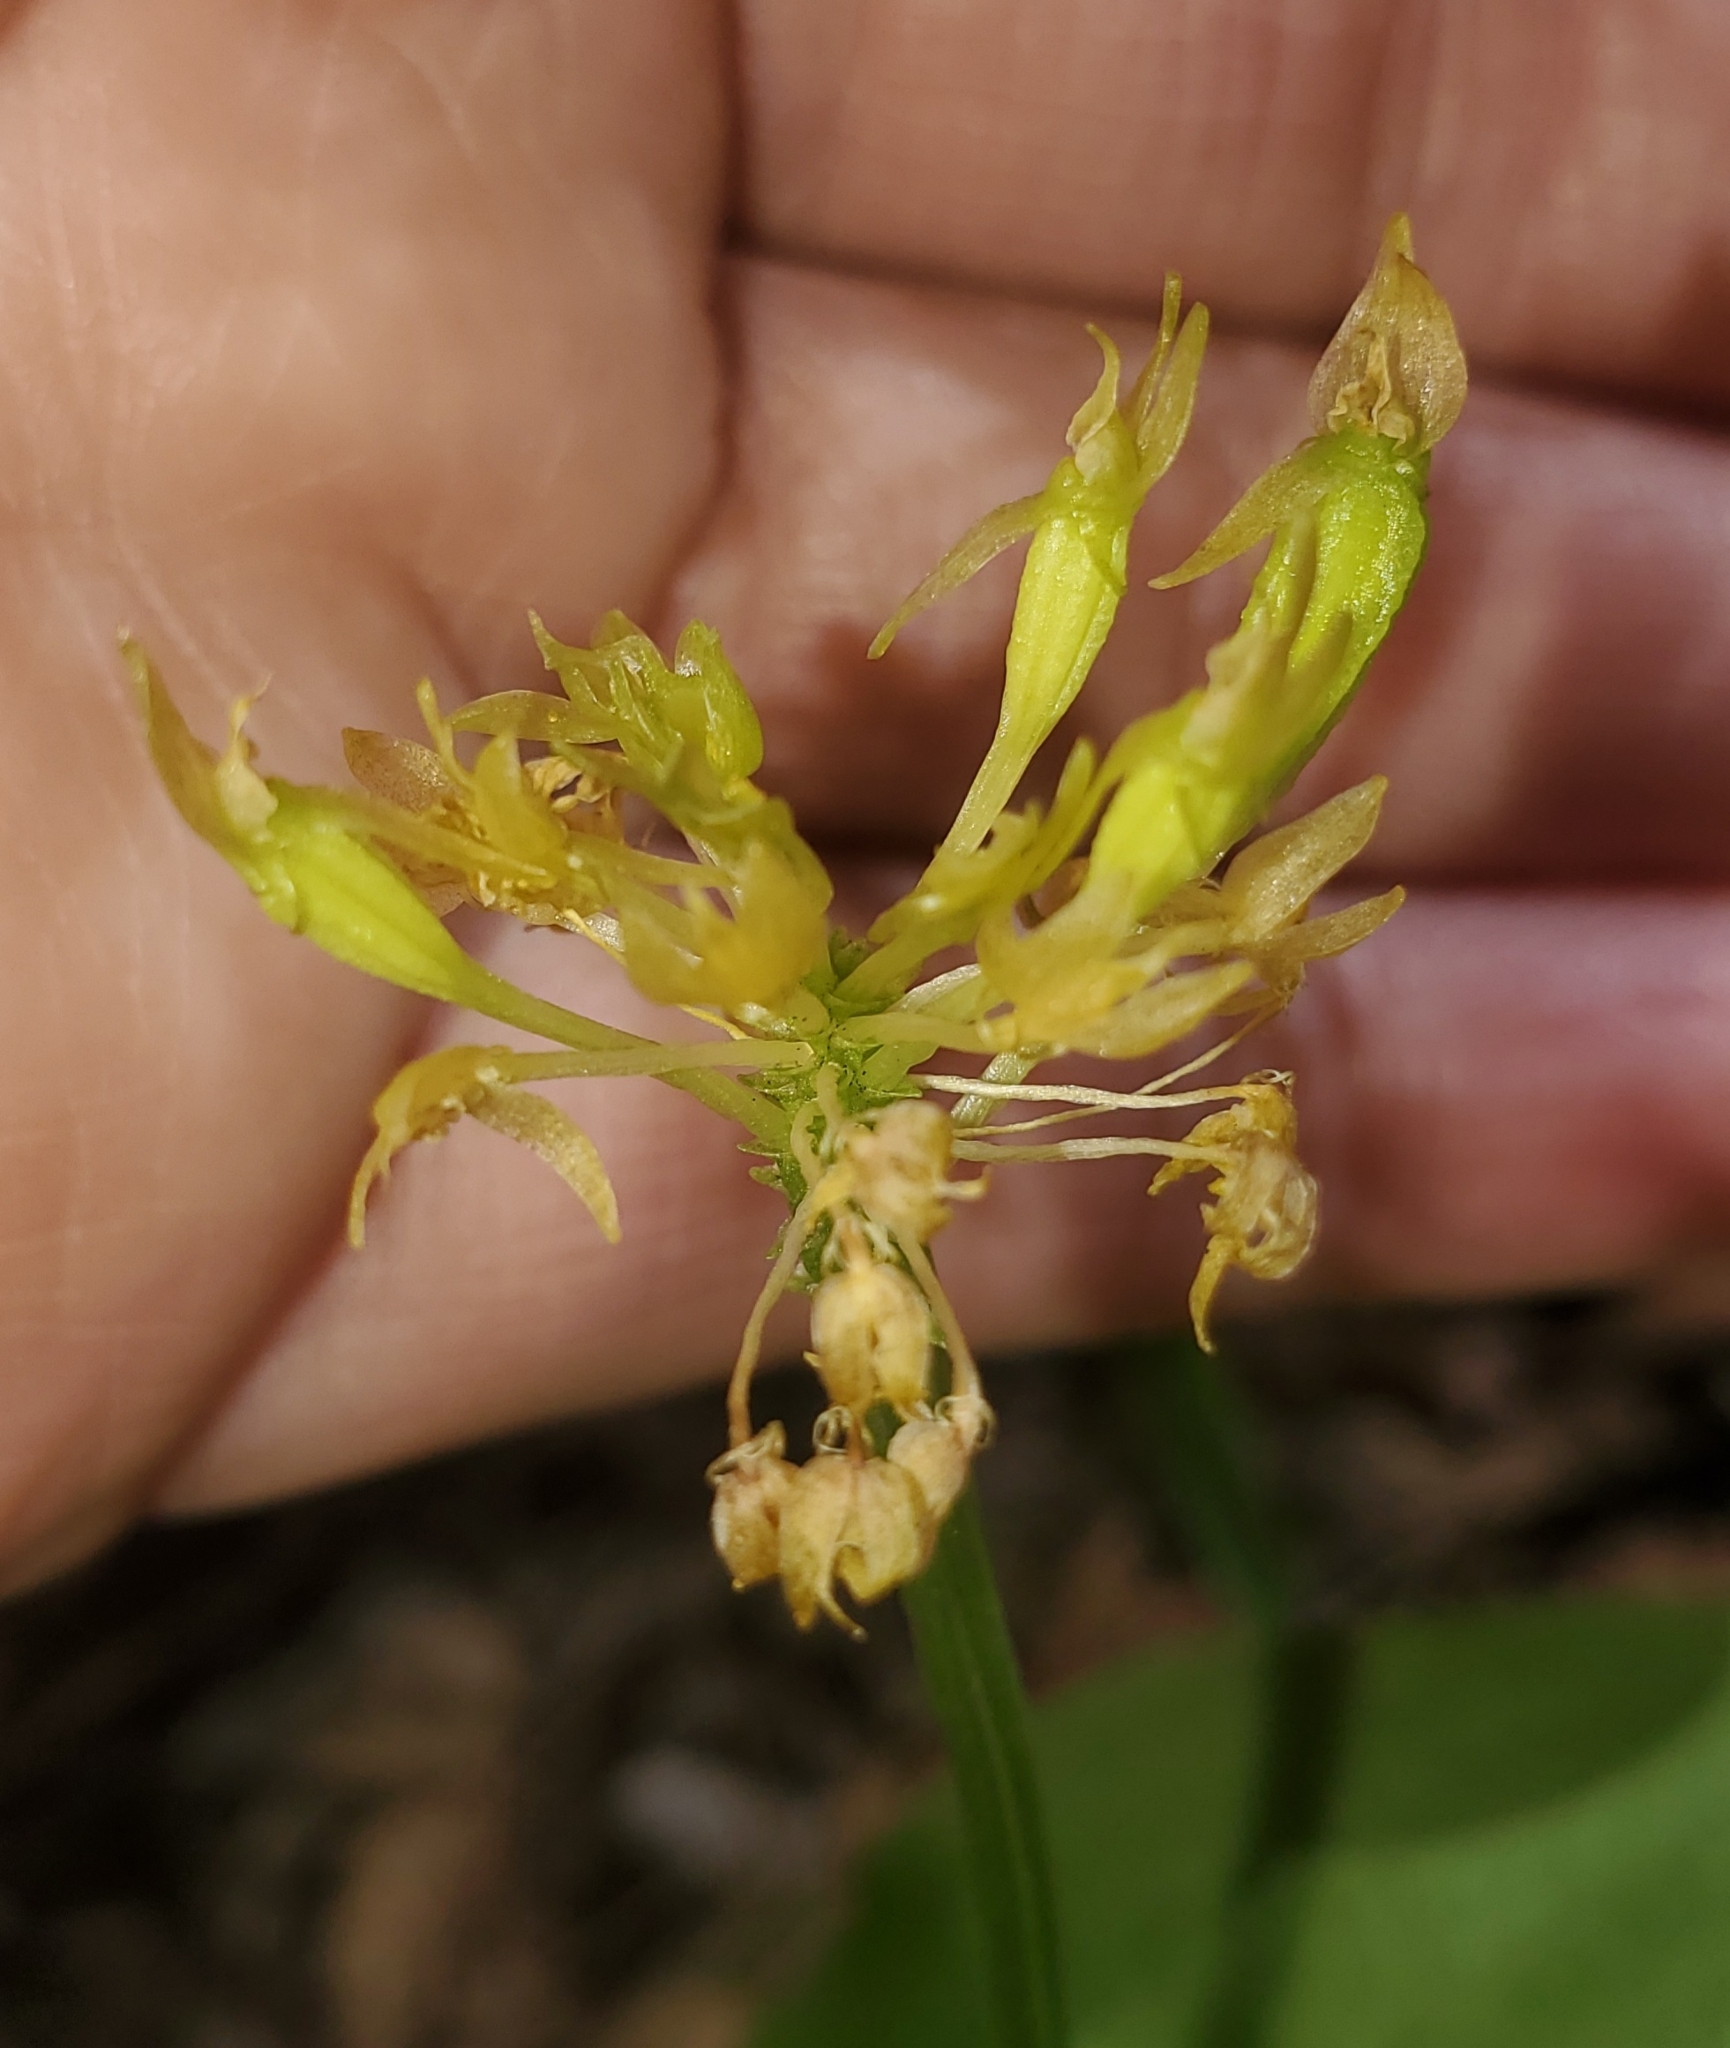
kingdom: Plantae
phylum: Tracheophyta
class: Liliopsida
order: Asparagales
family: Orchidaceae
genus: Malaxis
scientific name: Malaxis brachystachys
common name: Huachuca adder's-mouth
